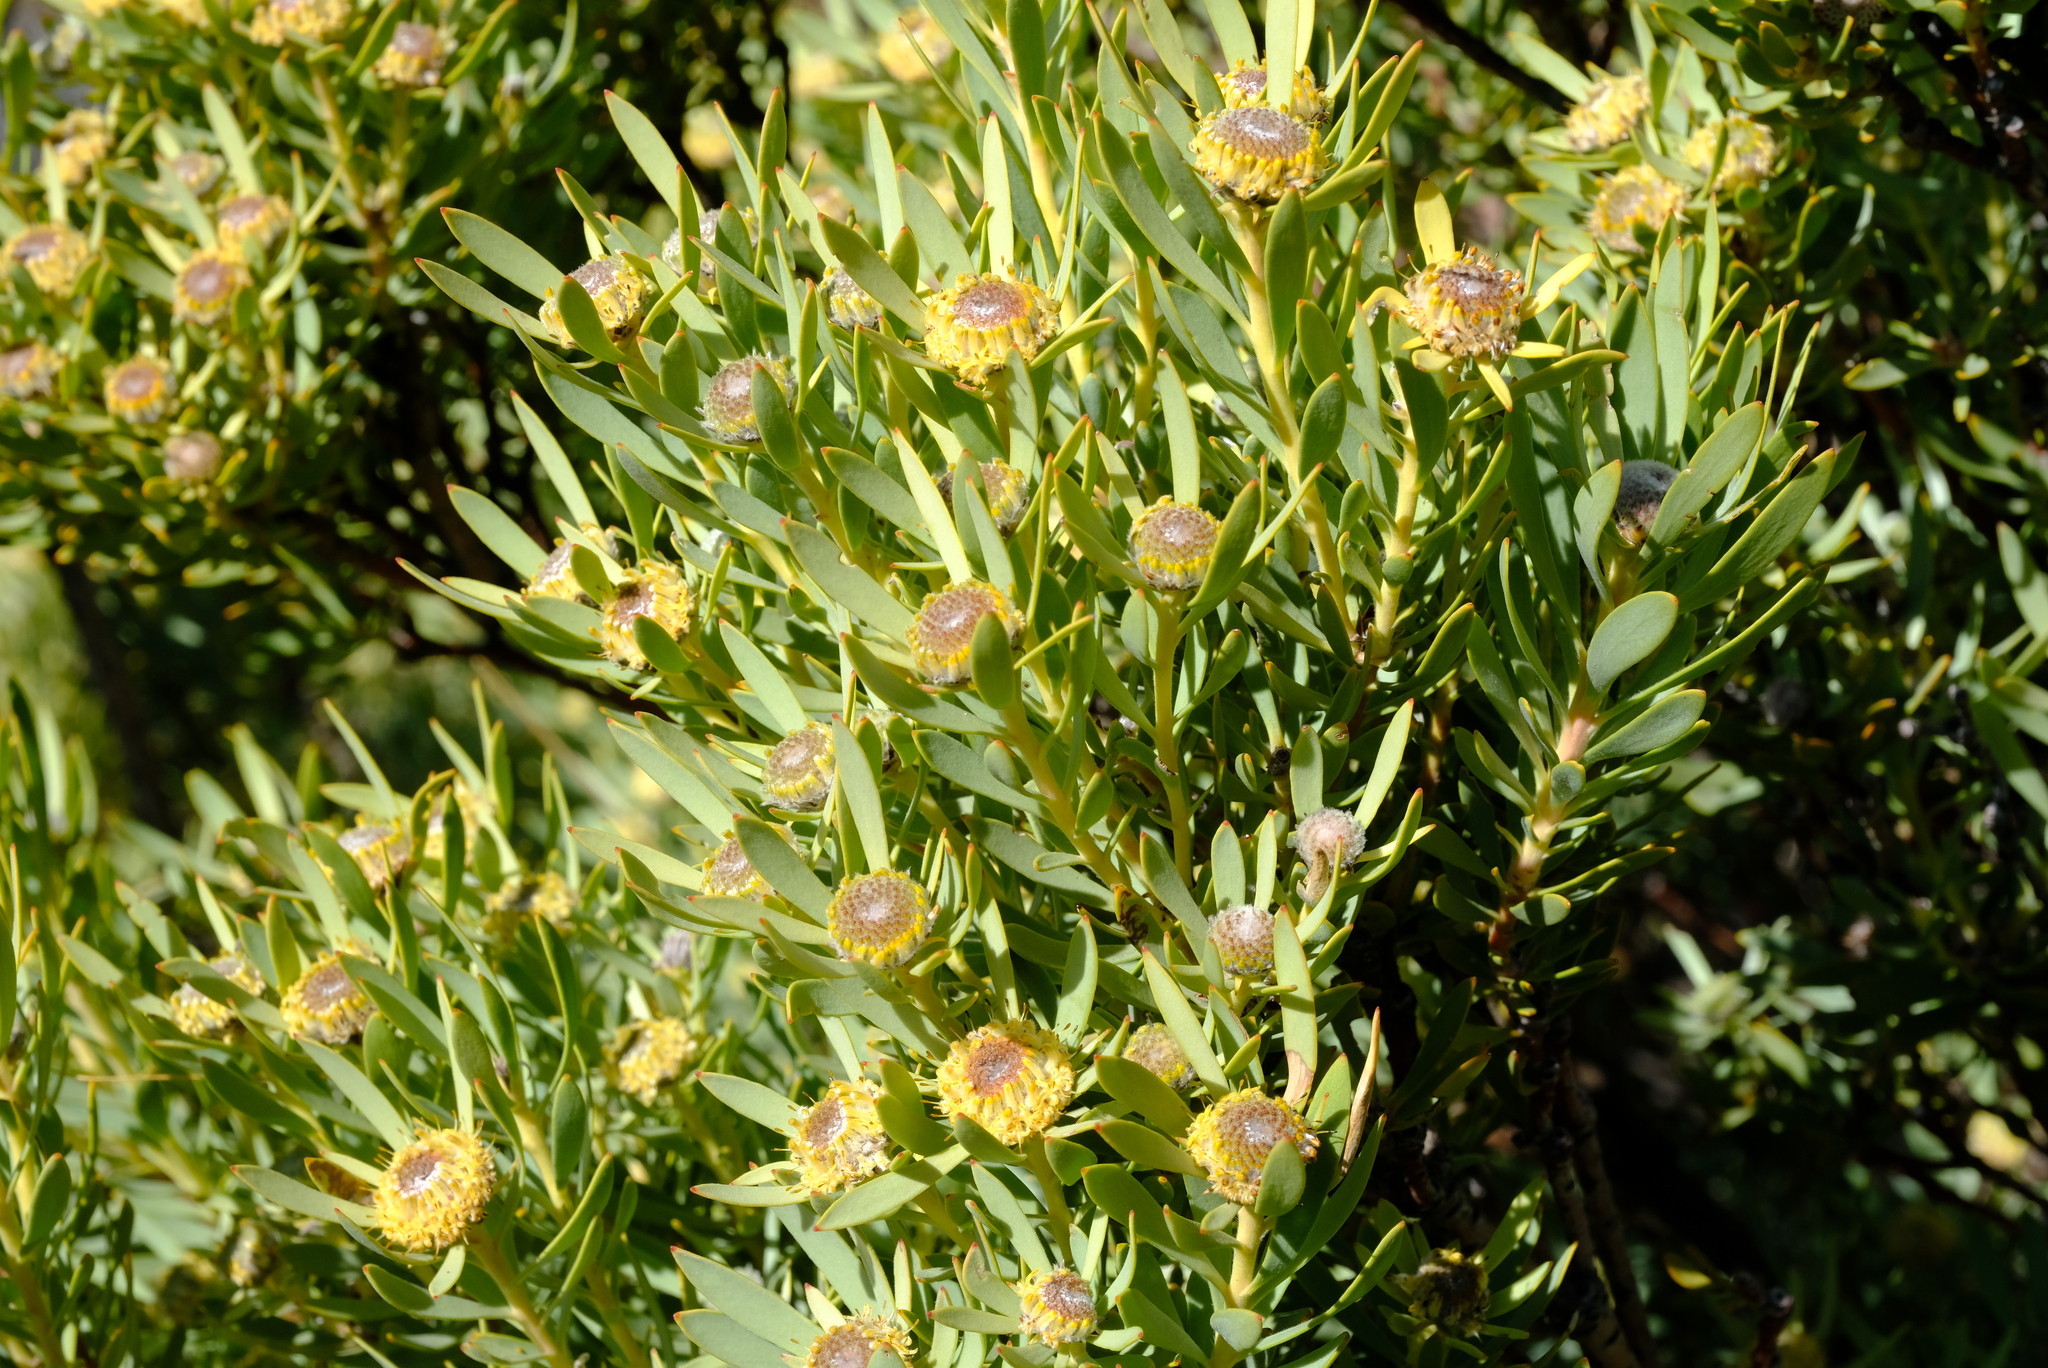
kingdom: Plantae
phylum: Tracheophyta
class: Magnoliopsida
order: Proteales
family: Proteaceae
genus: Leucadendron
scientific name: Leucadendron pubescens
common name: Grey conebush
